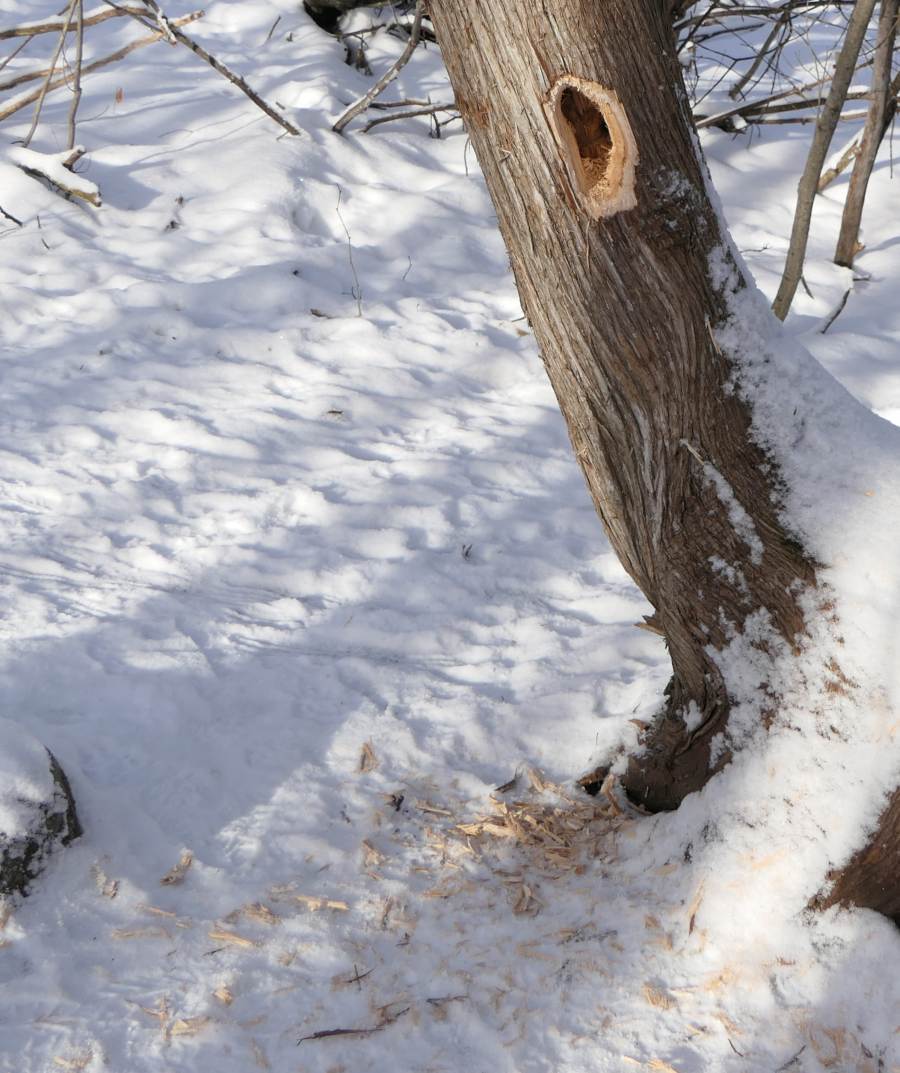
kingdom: Animalia
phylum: Chordata
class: Aves
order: Piciformes
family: Picidae
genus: Dryocopus
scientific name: Dryocopus pileatus
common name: Pileated woodpecker
